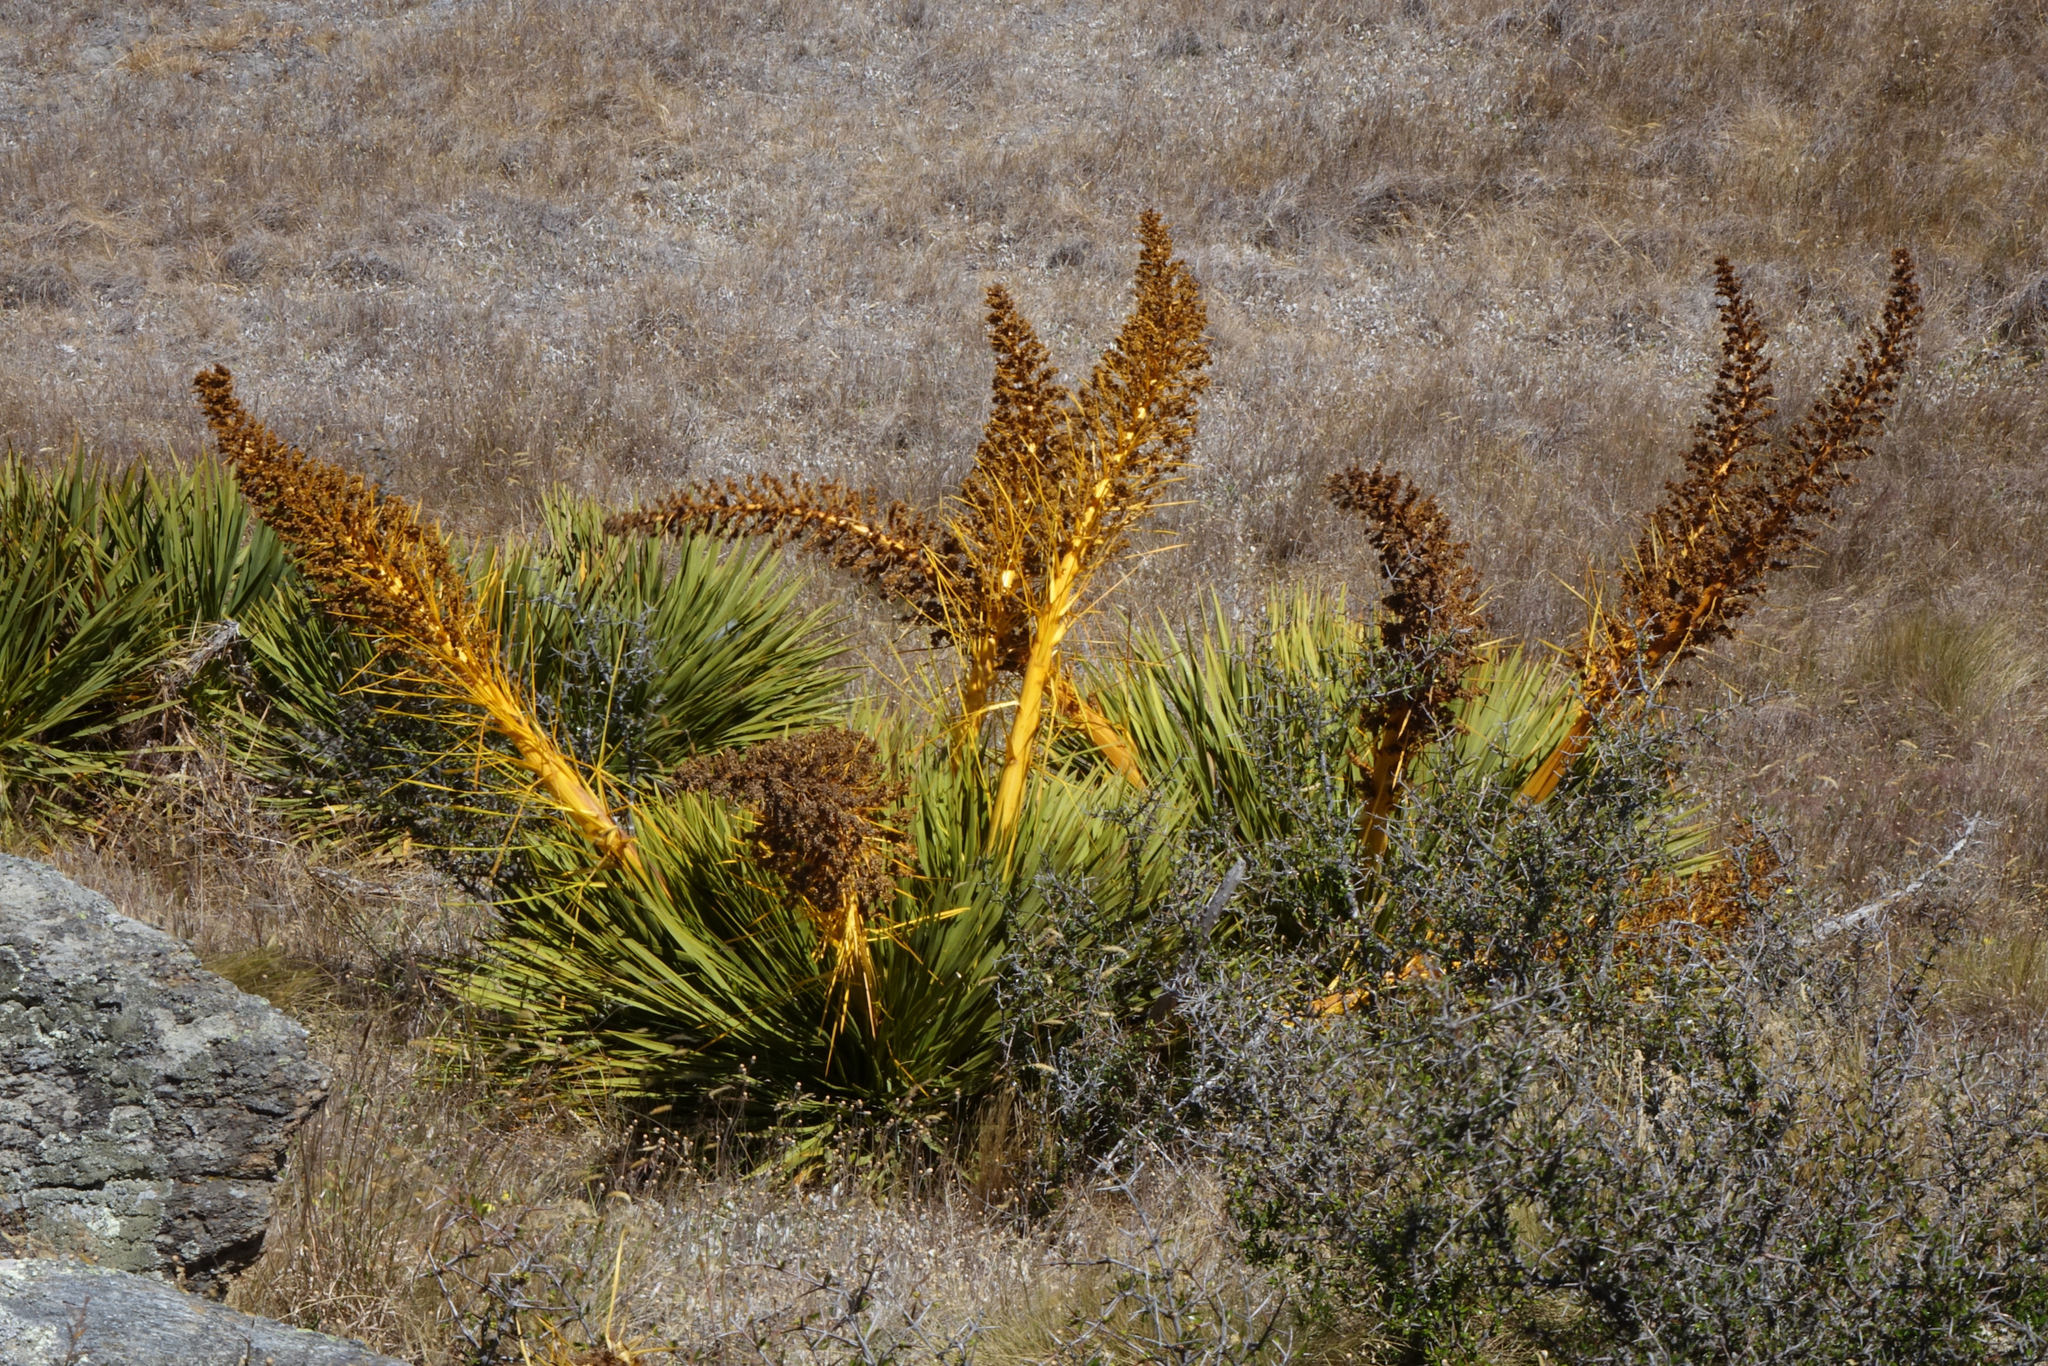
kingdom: Plantae
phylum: Tracheophyta
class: Magnoliopsida
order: Apiales
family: Apiaceae
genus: Aciphylla
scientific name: Aciphylla aurea
